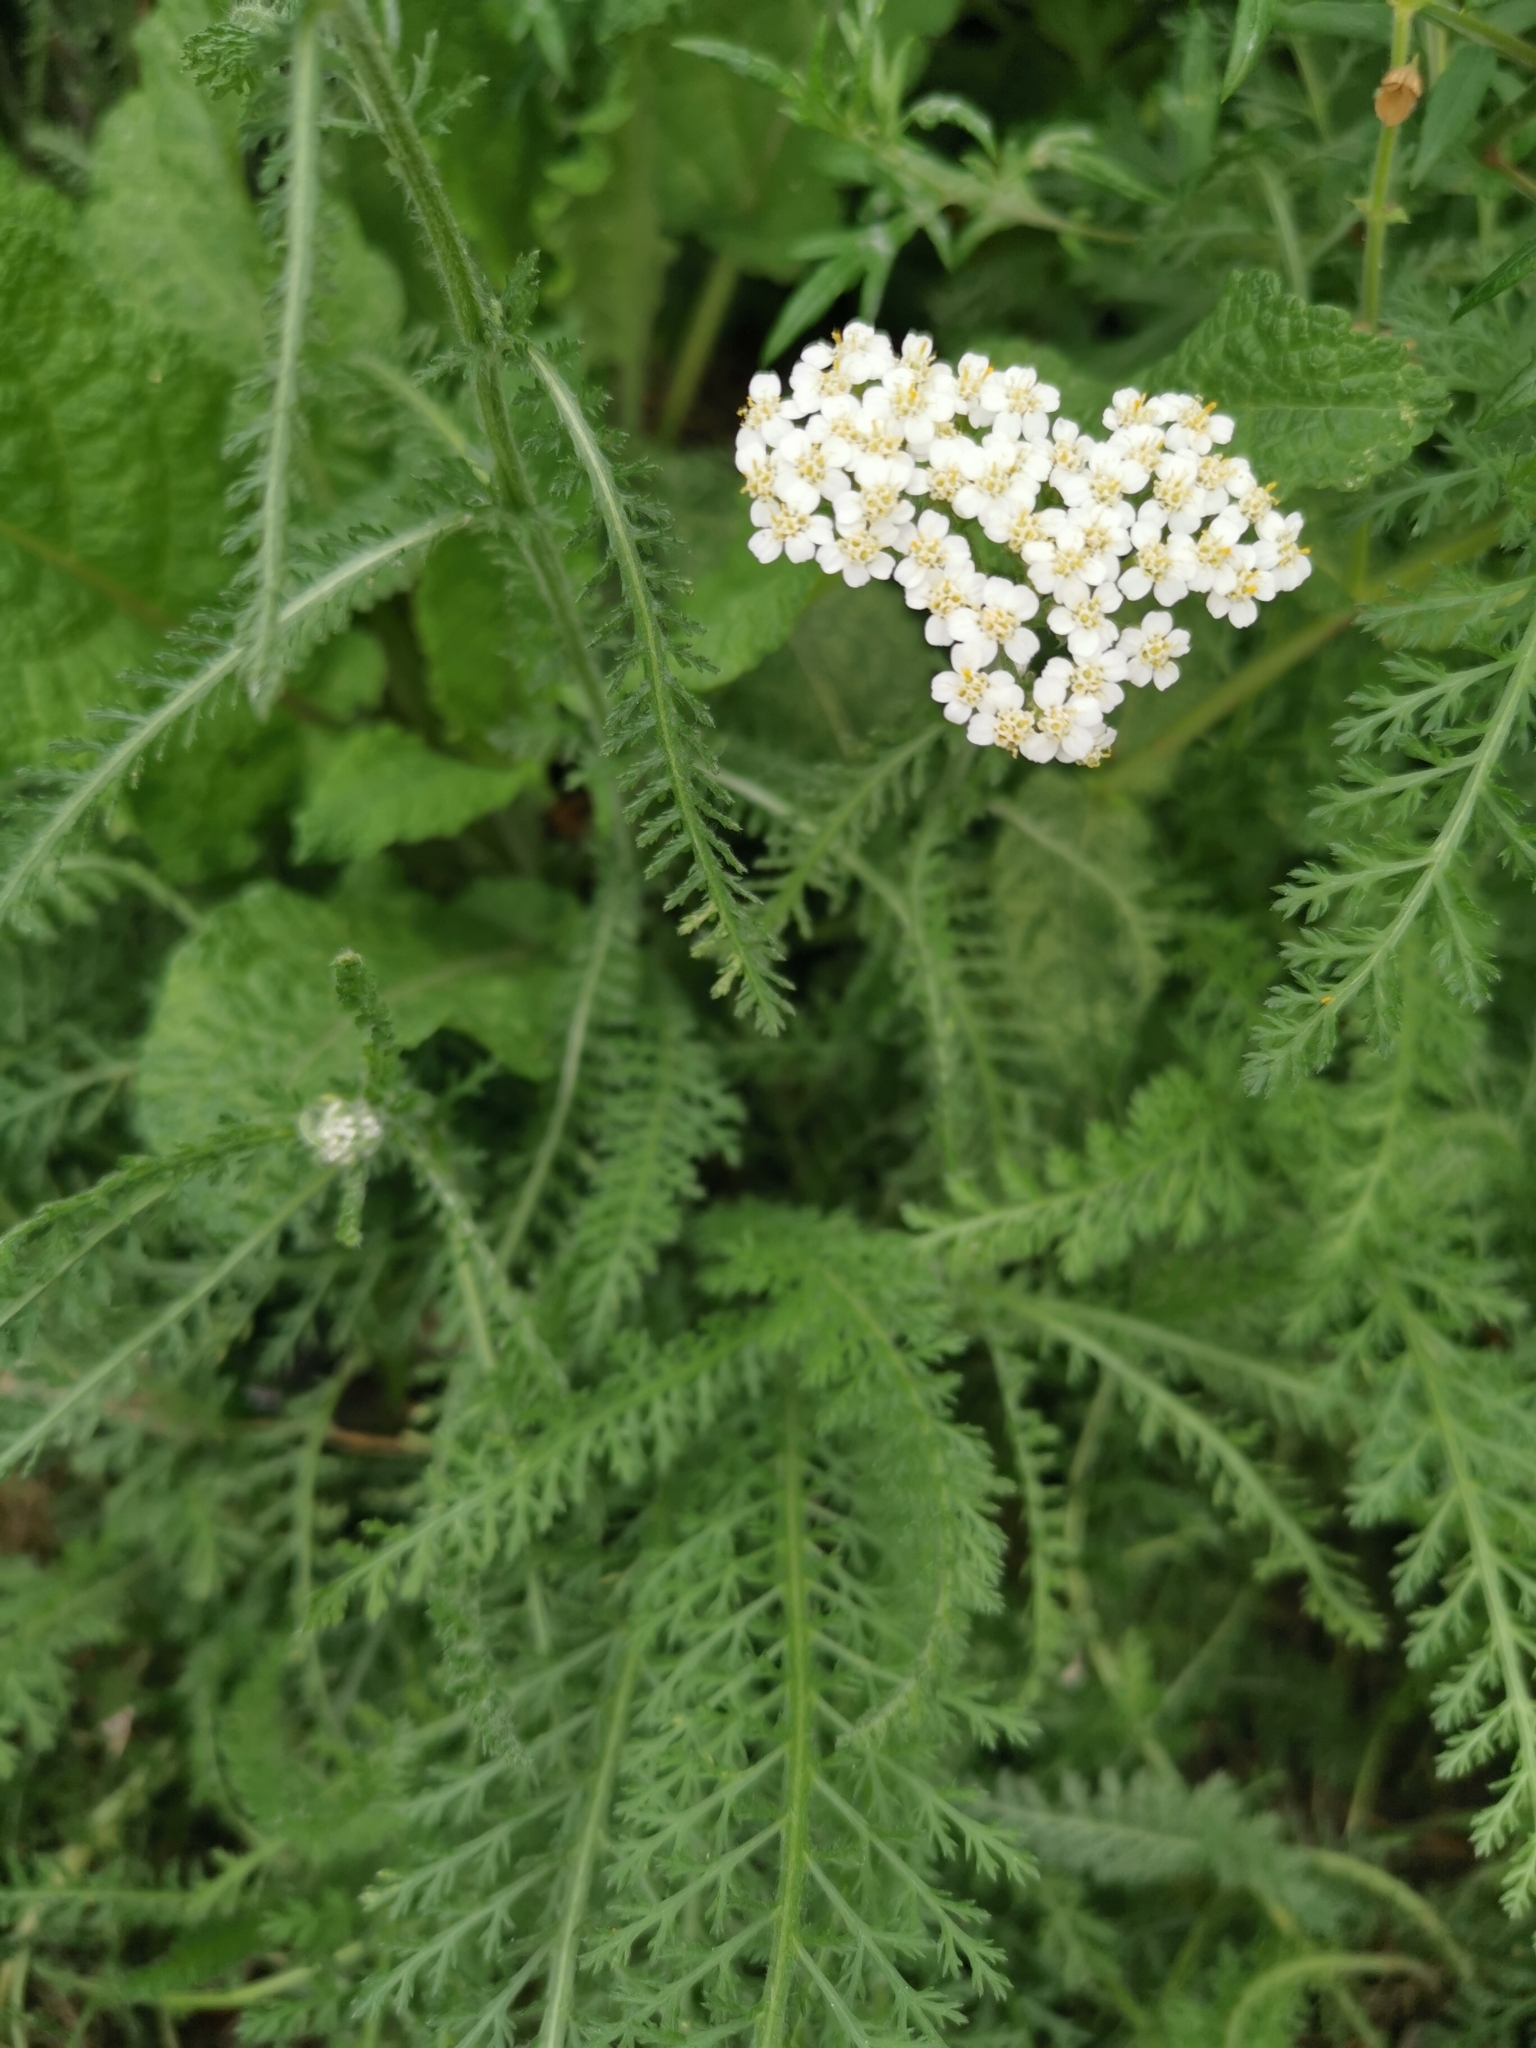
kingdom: Plantae
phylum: Tracheophyta
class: Magnoliopsida
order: Asterales
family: Asteraceae
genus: Achillea
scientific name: Achillea millefolium
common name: Yarrow
